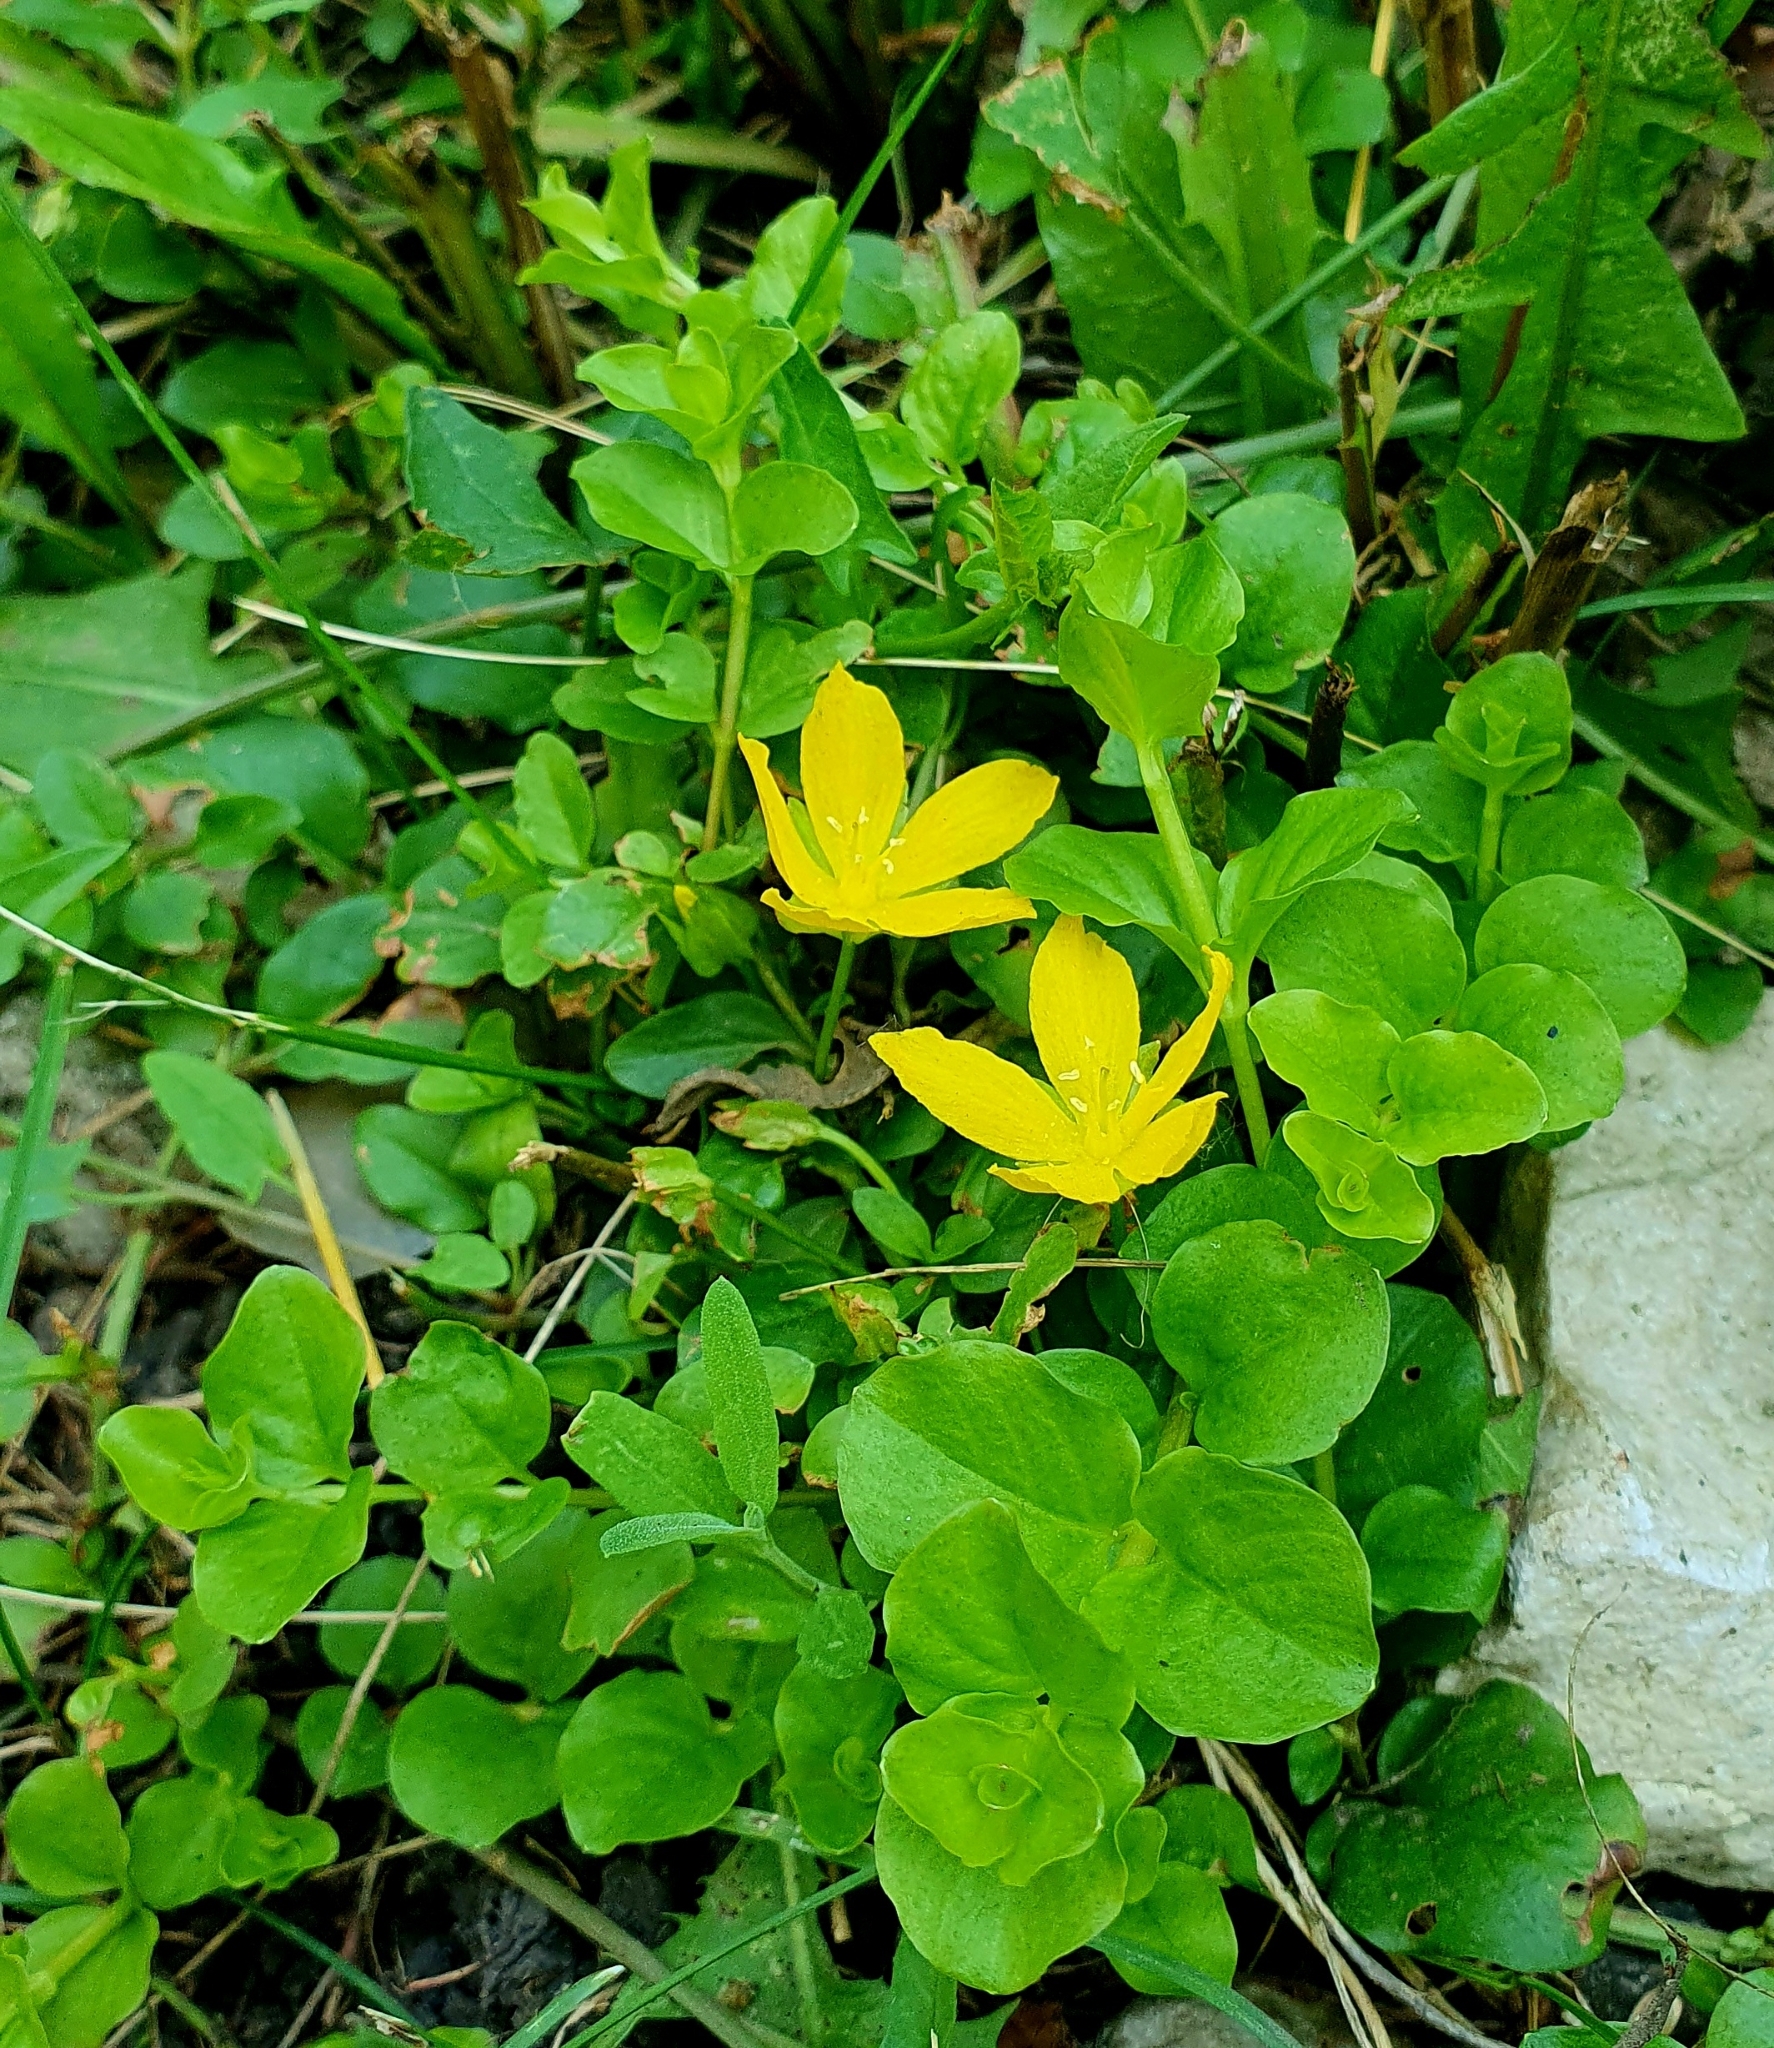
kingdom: Plantae
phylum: Tracheophyta
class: Magnoliopsida
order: Ericales
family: Primulaceae
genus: Lysimachia
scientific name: Lysimachia nummularia
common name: Moneywort
